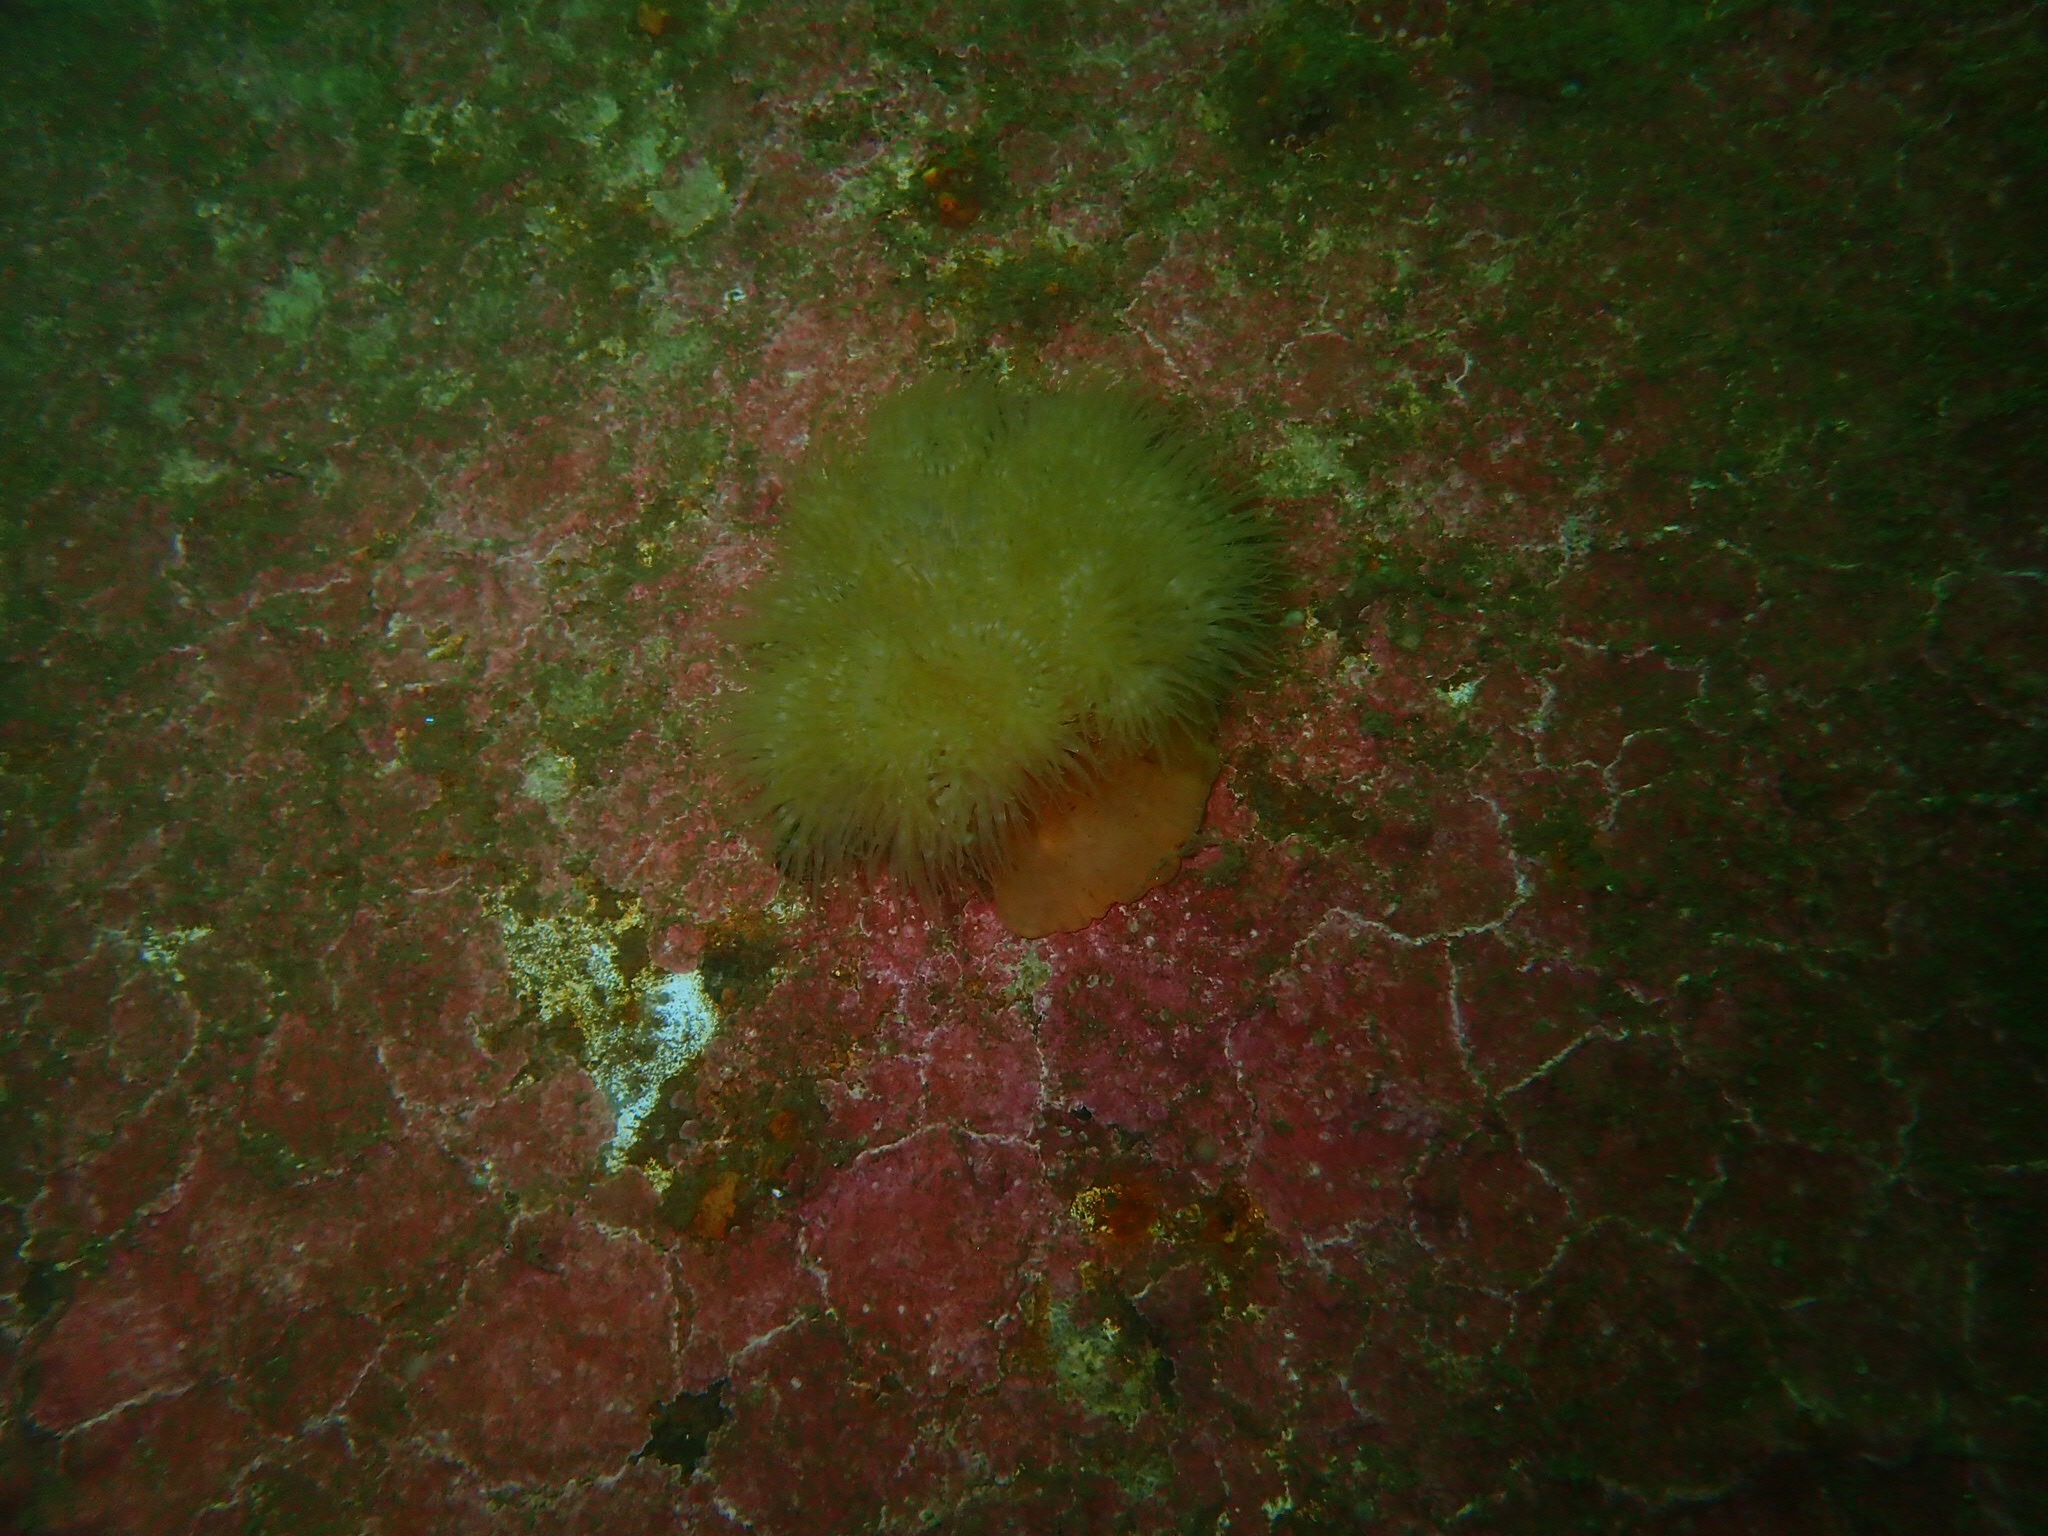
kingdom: Animalia
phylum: Cnidaria
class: Anthozoa
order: Actiniaria
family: Metridiidae
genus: Metridium
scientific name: Metridium senile
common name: Clonal plumose anemone
